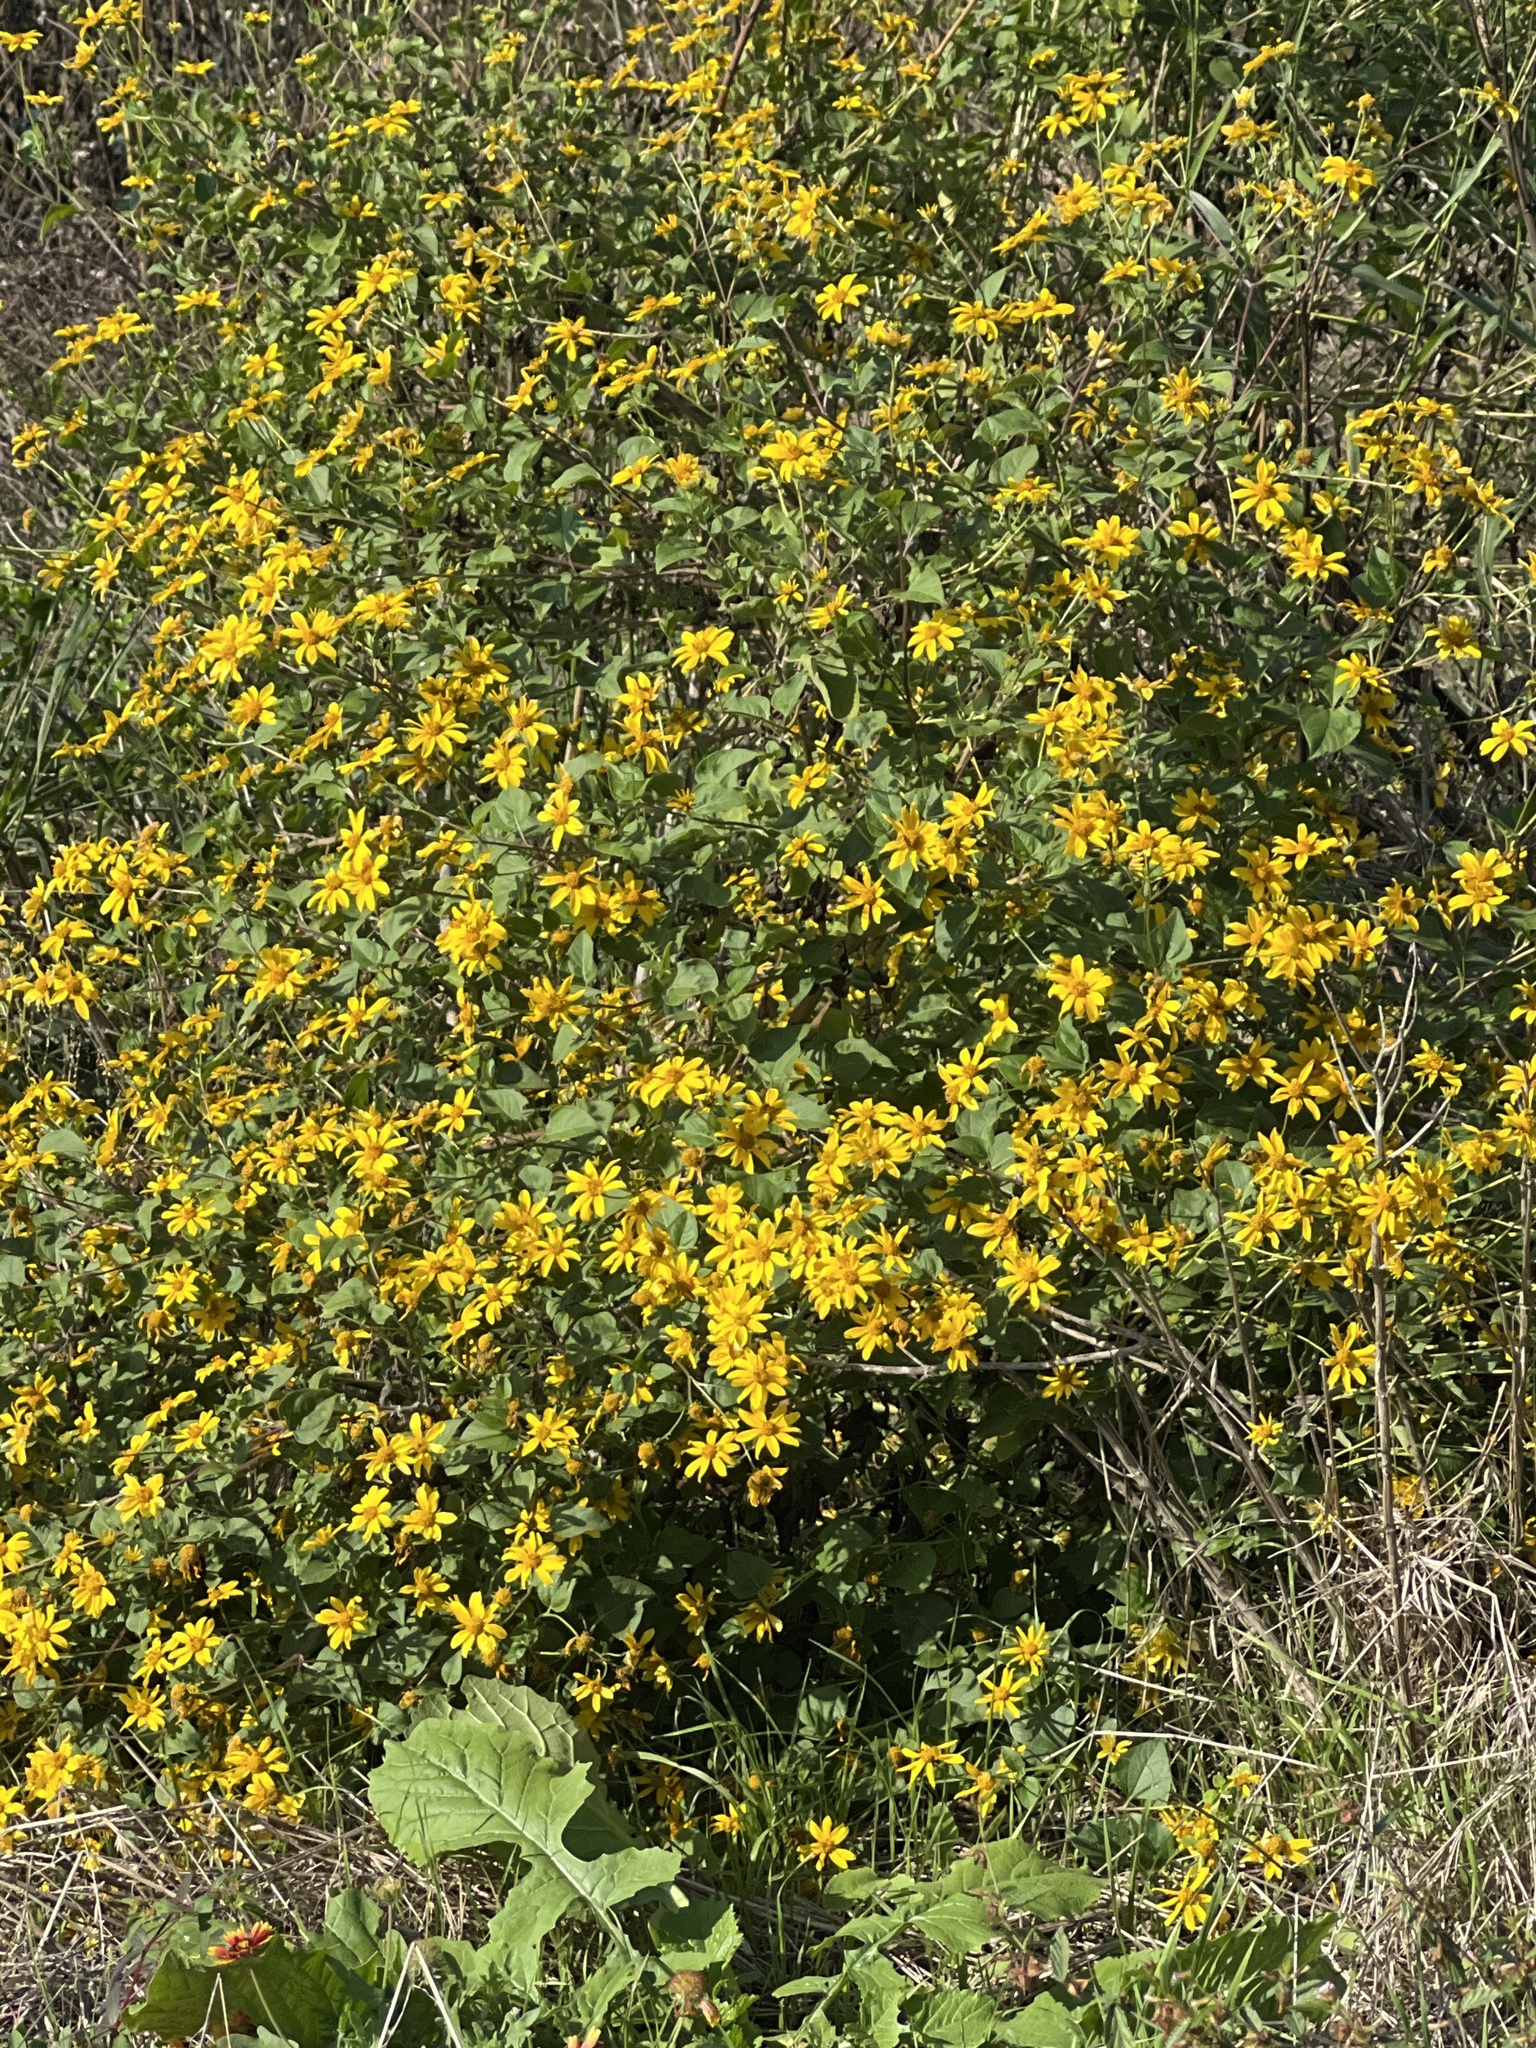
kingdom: Plantae
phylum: Tracheophyta
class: Magnoliopsida
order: Asterales
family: Asteraceae
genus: Viguiera
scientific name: Viguiera dentata
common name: Toothleaf
